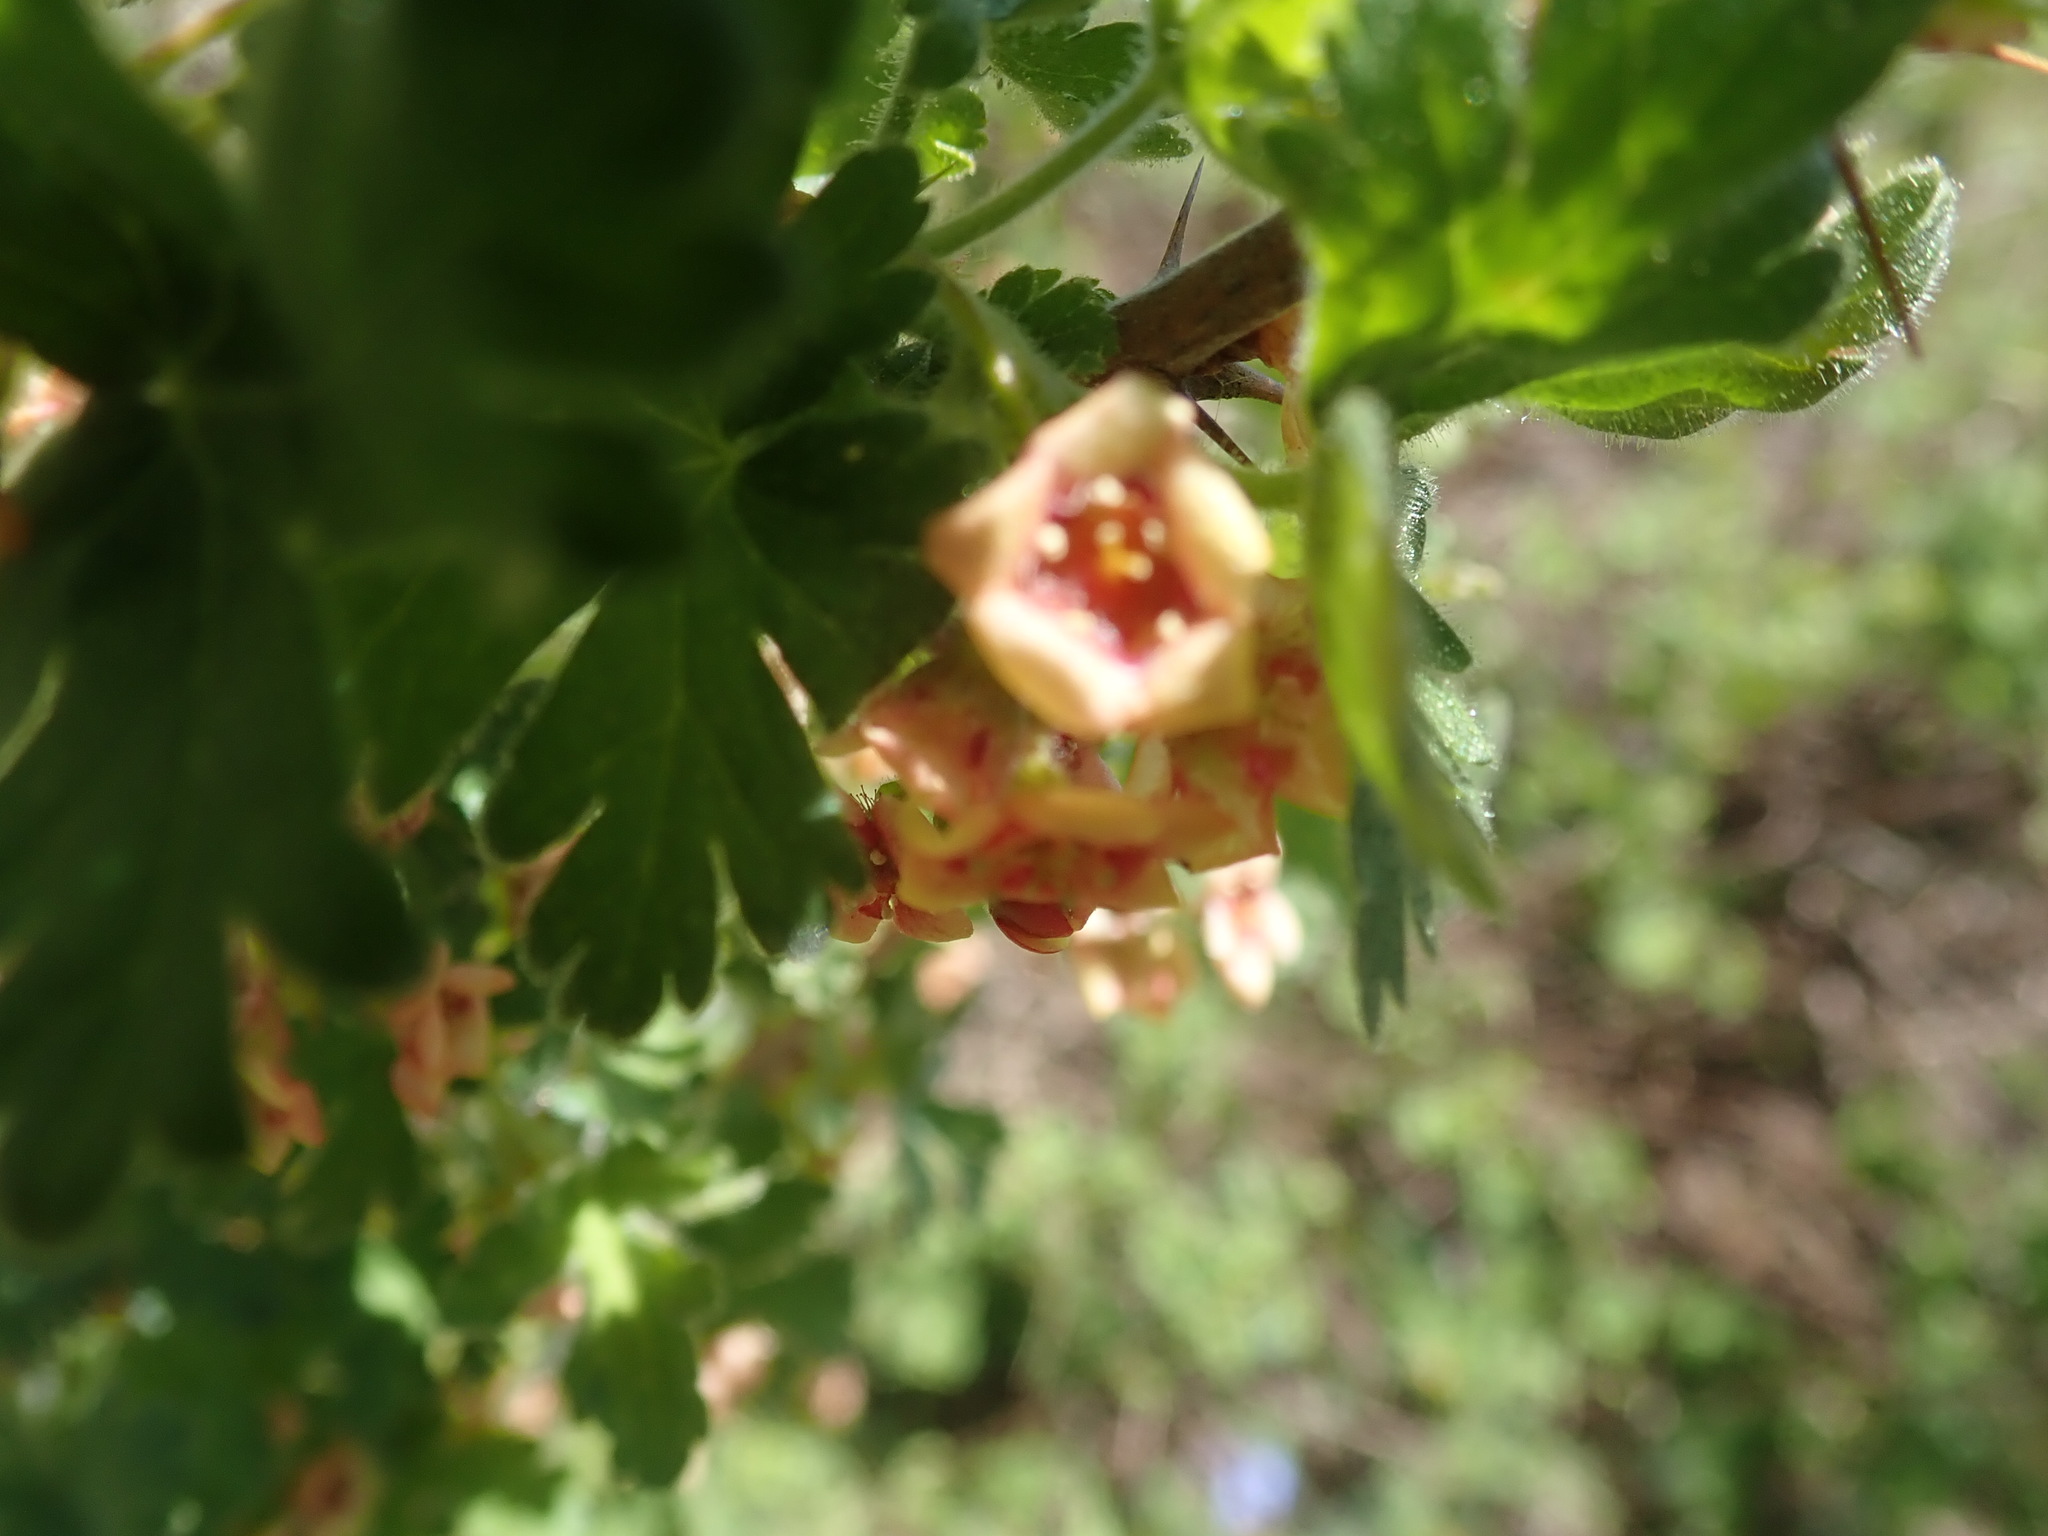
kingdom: Plantae
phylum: Tracheophyta
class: Magnoliopsida
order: Saxifragales
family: Grossulariaceae
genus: Ribes
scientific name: Ribes montigenum
